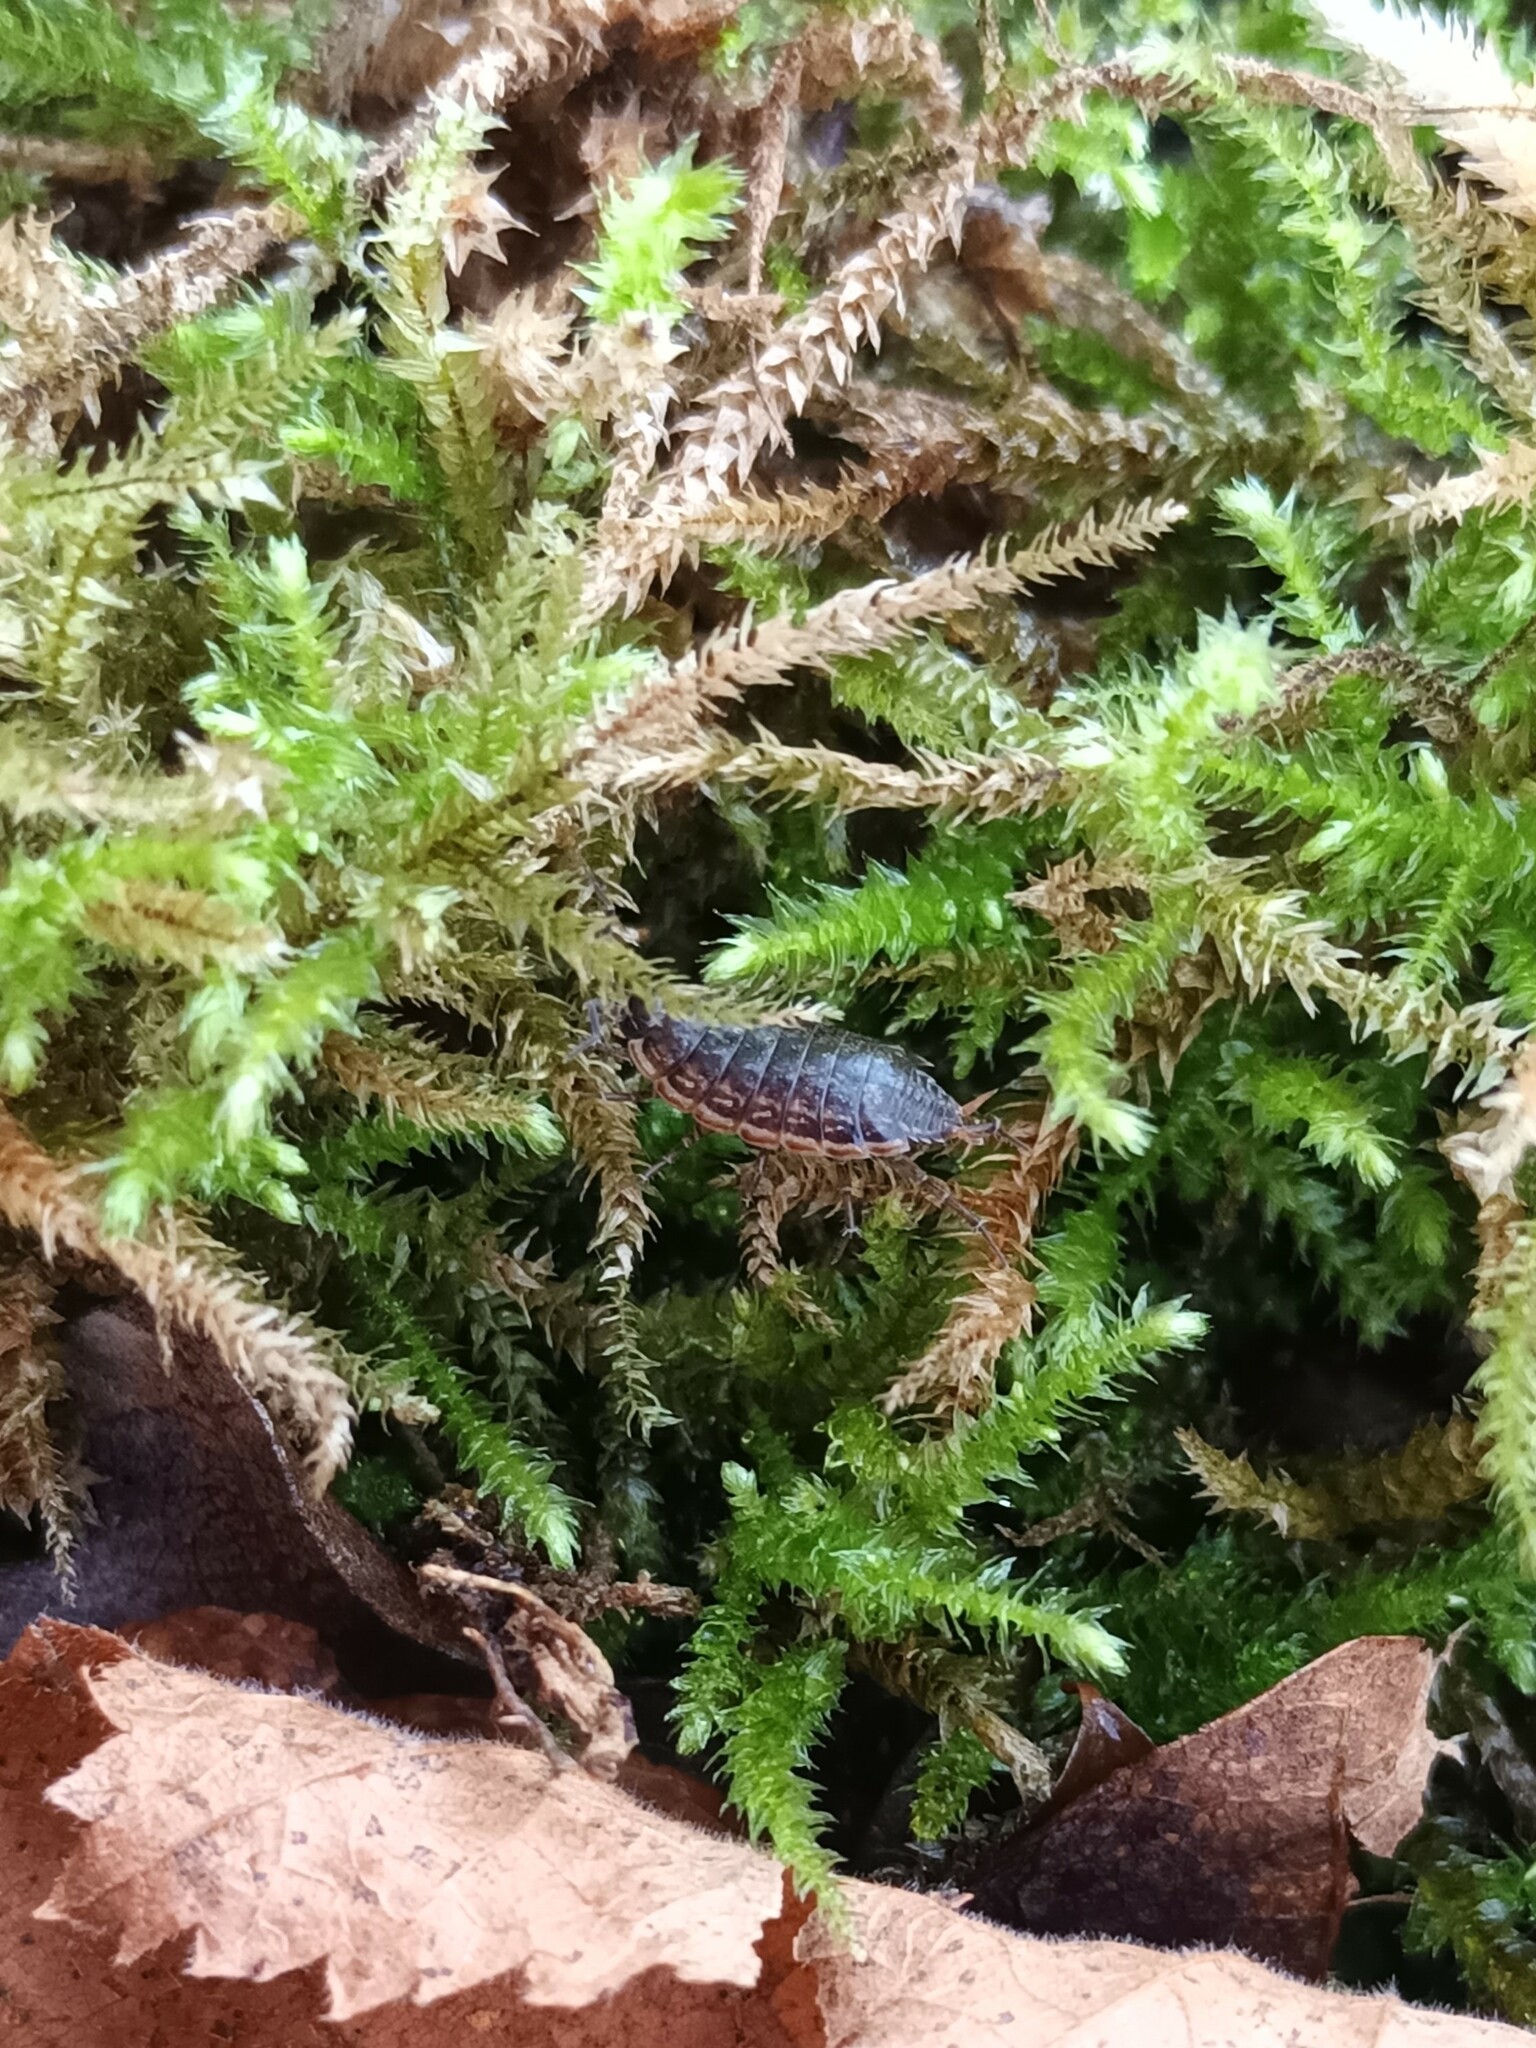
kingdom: Animalia
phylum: Arthropoda
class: Malacostraca
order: Isopoda
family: Philosciidae
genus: Philoscia
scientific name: Philoscia muscorum
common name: Common striped woodlouse
